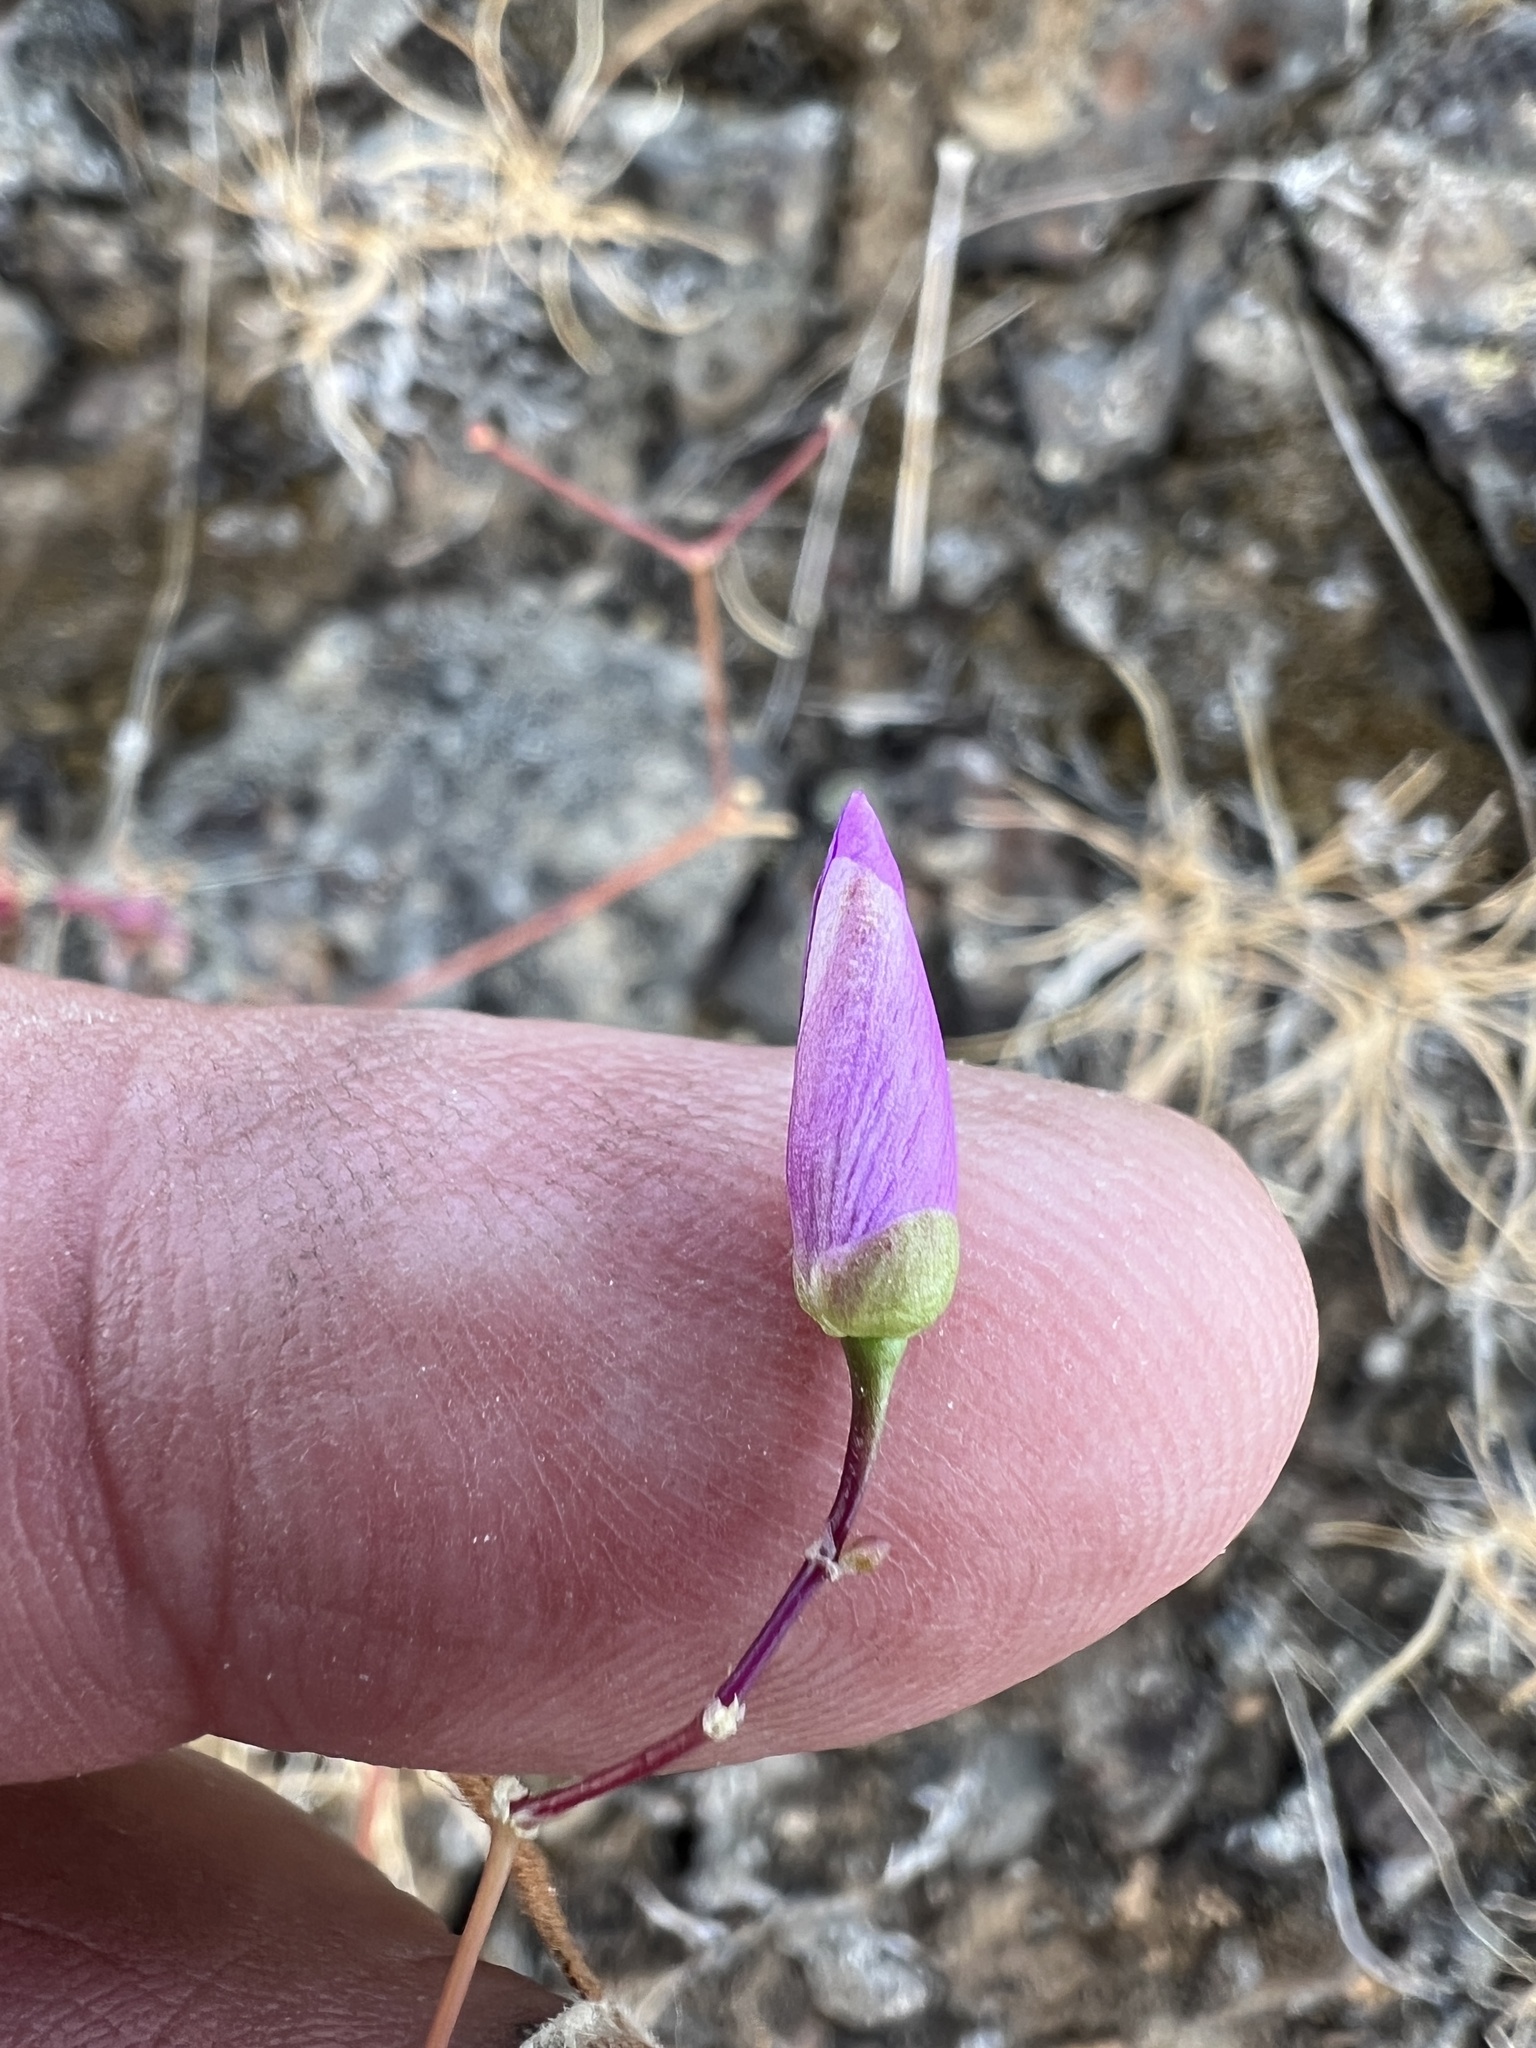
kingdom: Plantae
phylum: Tracheophyta
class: Magnoliopsida
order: Caryophyllales
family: Montiaceae
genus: Phemeranthus
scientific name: Phemeranthus spinescens
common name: Spiny fameflower
